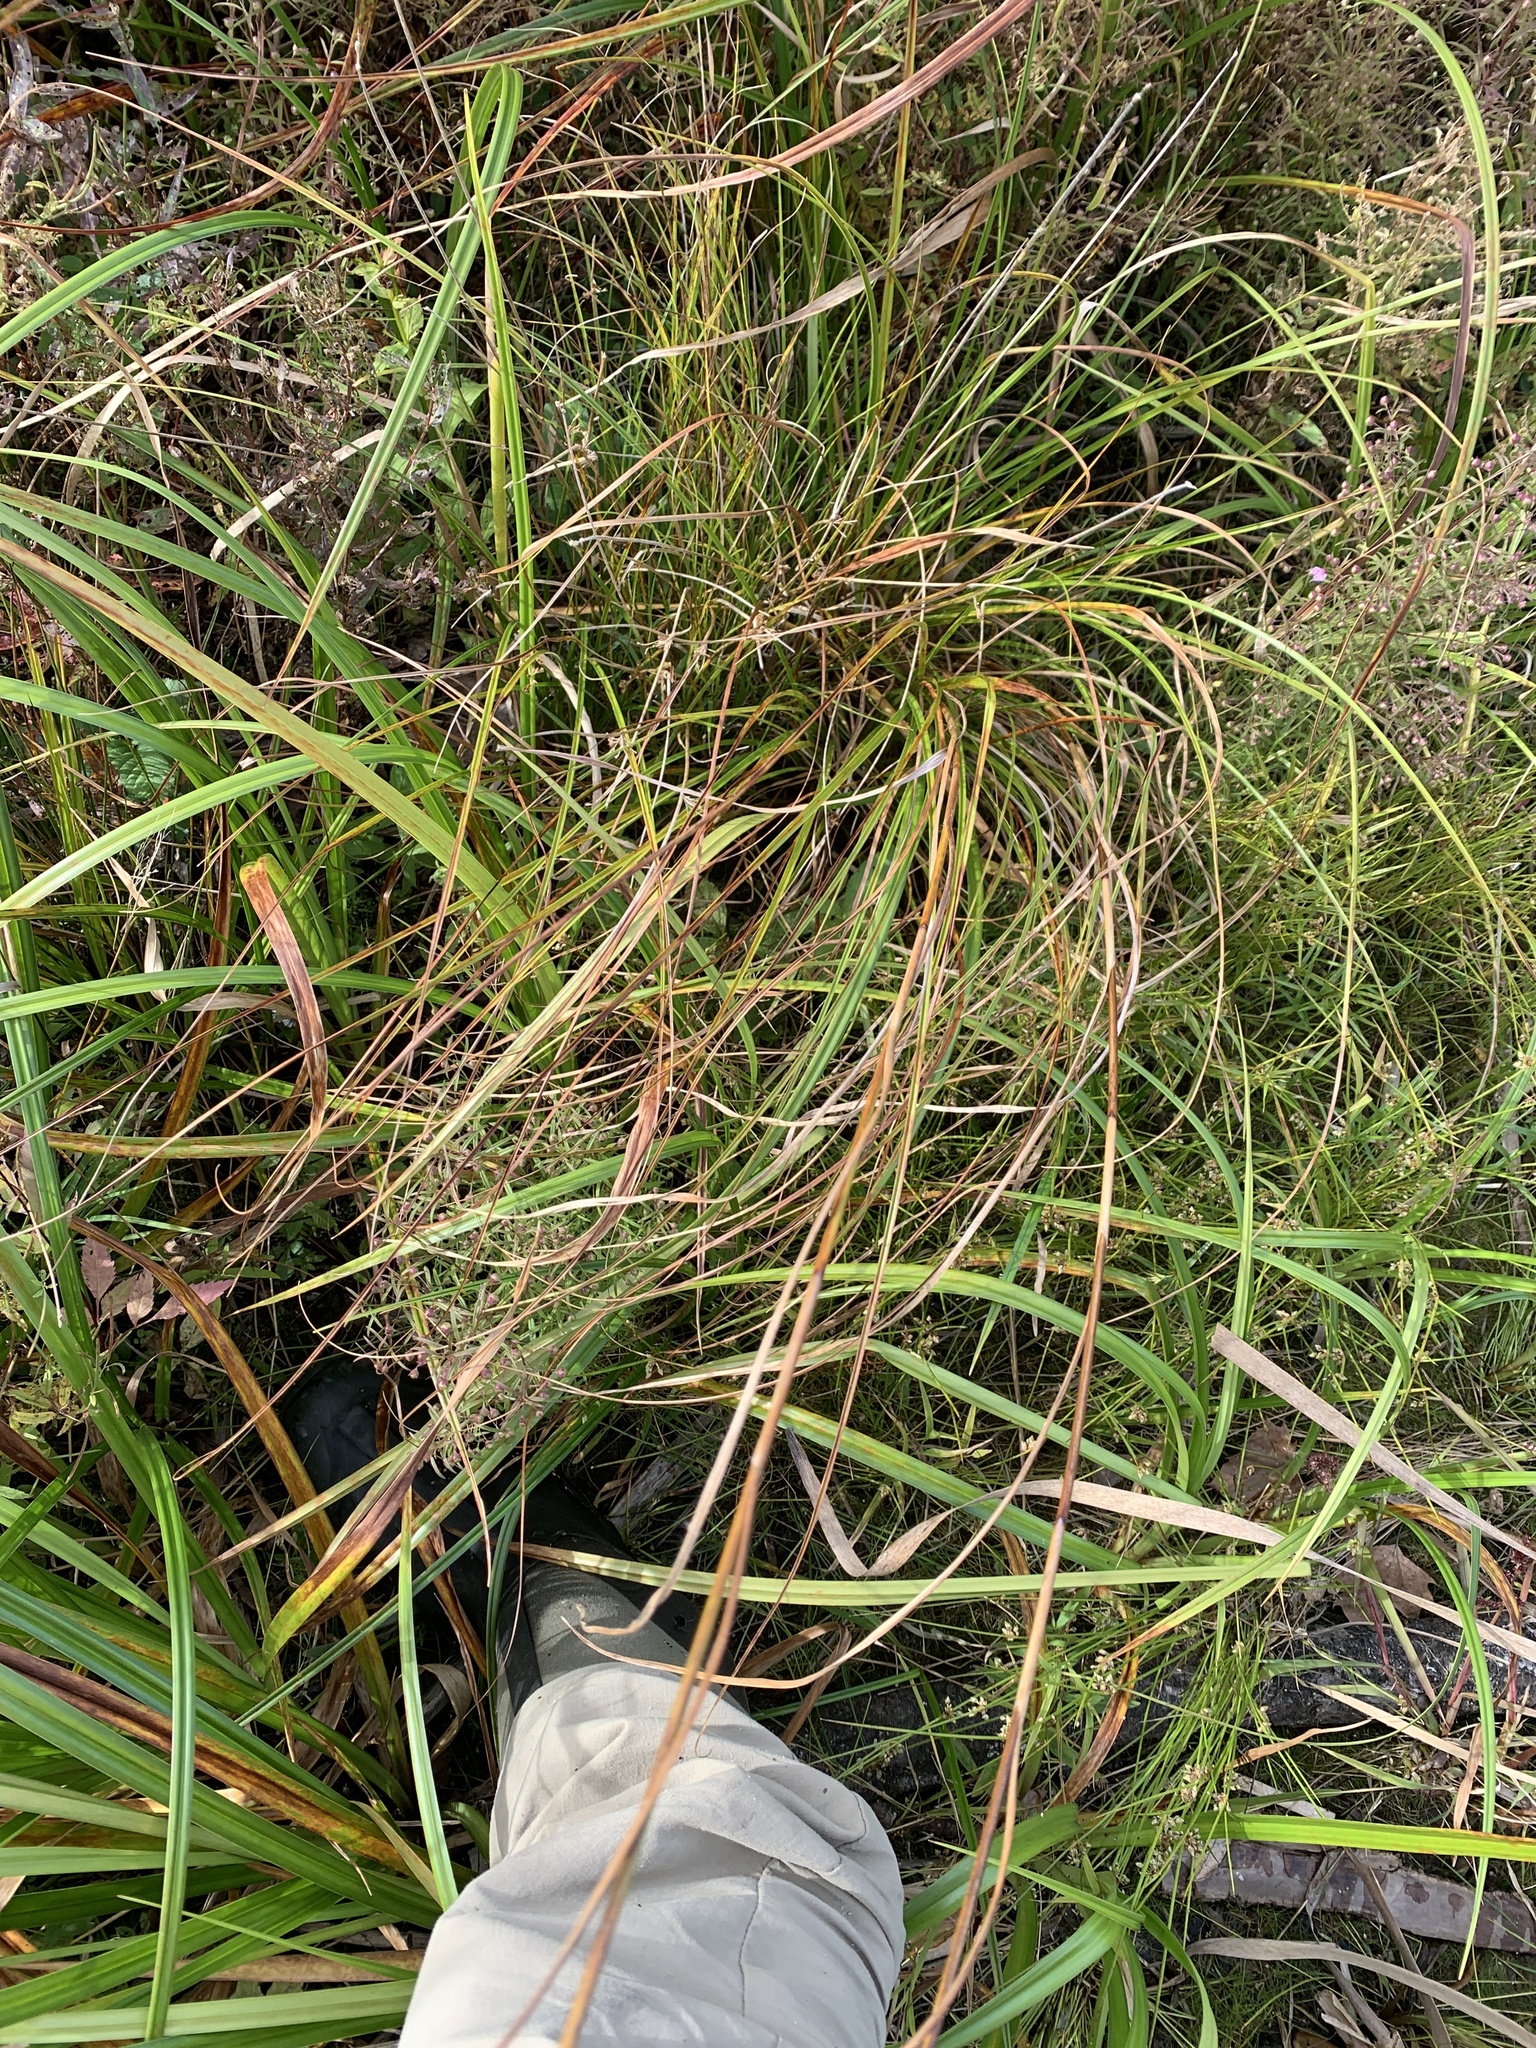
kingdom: Plantae
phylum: Tracheophyta
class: Liliopsida
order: Poales
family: Cyperaceae
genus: Scirpus
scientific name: Scirpus cyperinus
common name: Black-sheathed bulrush
